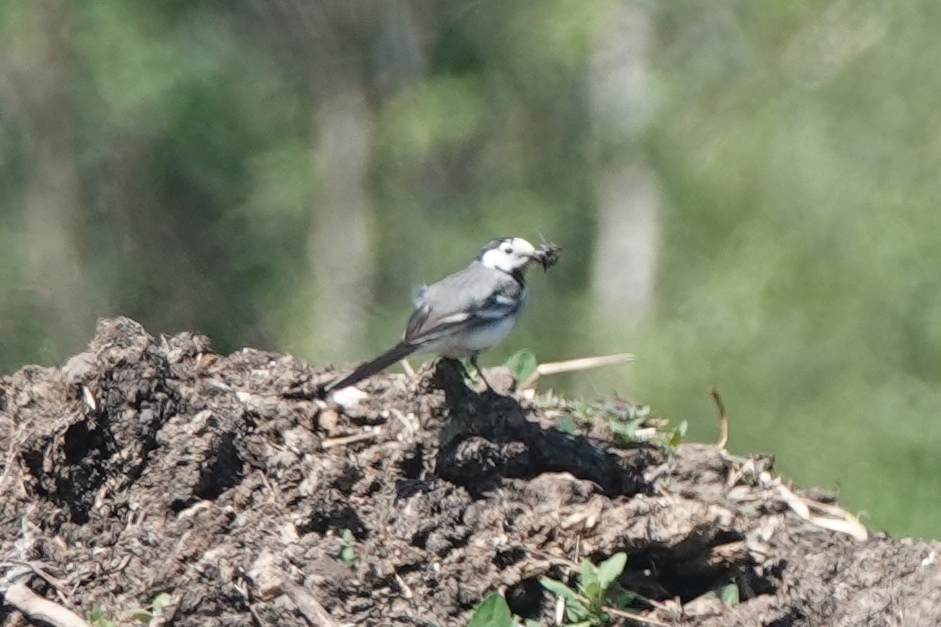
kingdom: Animalia
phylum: Chordata
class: Aves
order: Passeriformes
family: Motacillidae
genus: Motacilla
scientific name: Motacilla alba
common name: White wagtail
